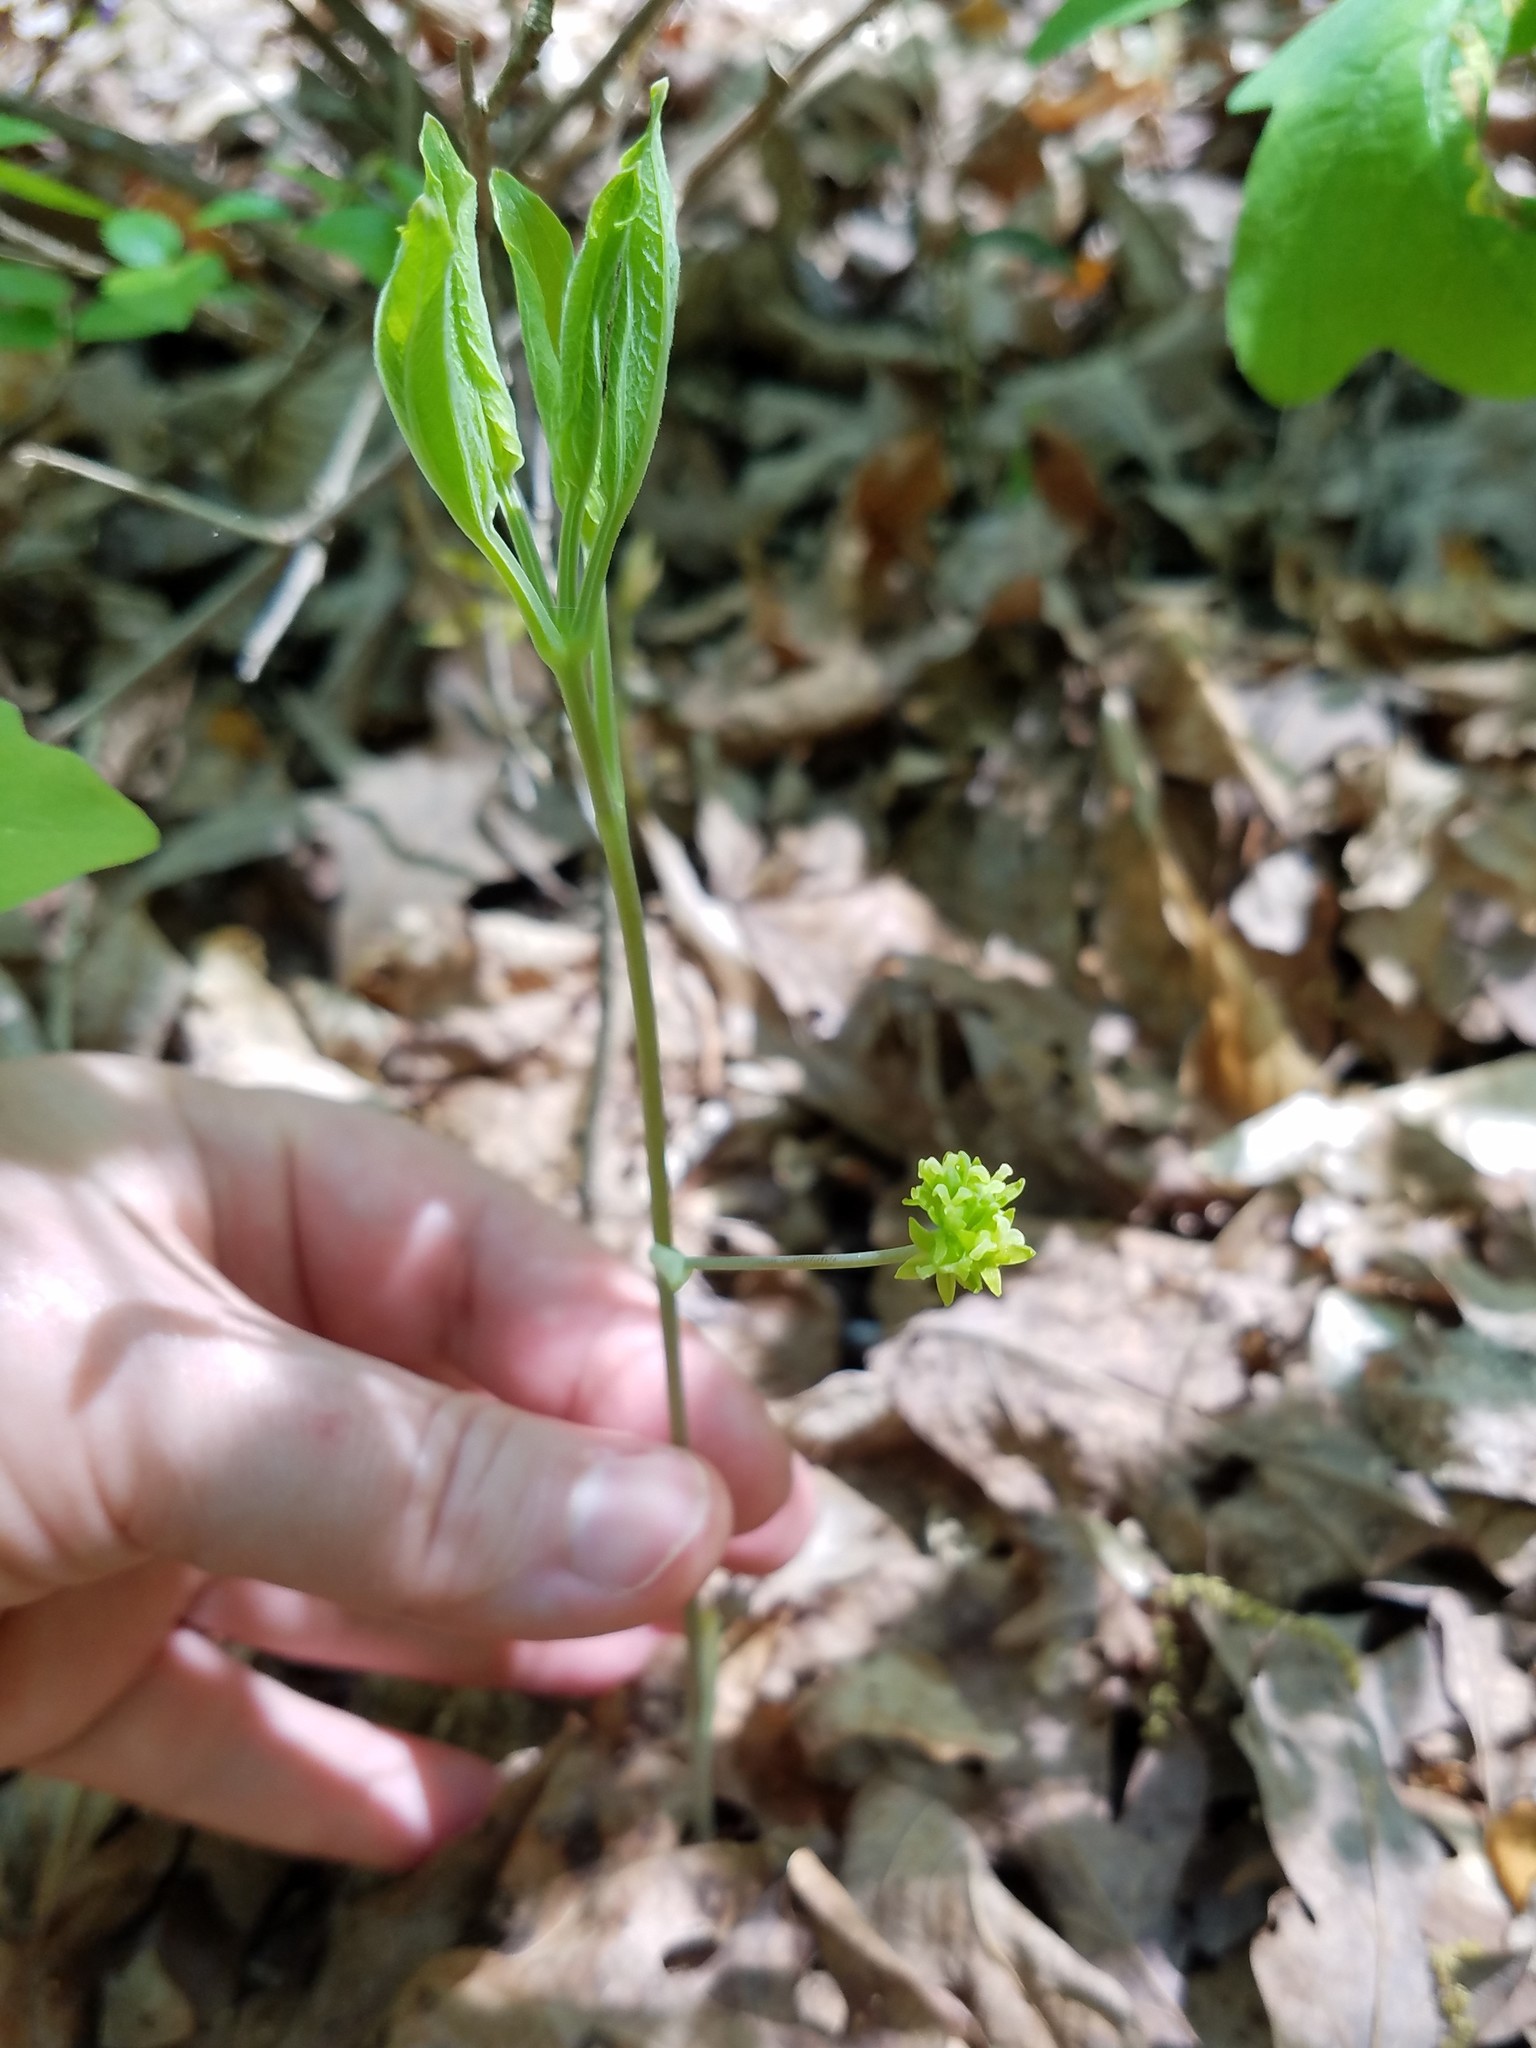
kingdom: Plantae
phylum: Tracheophyta
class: Liliopsida
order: Liliales
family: Smilacaceae
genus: Smilax
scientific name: Smilax hugeri
